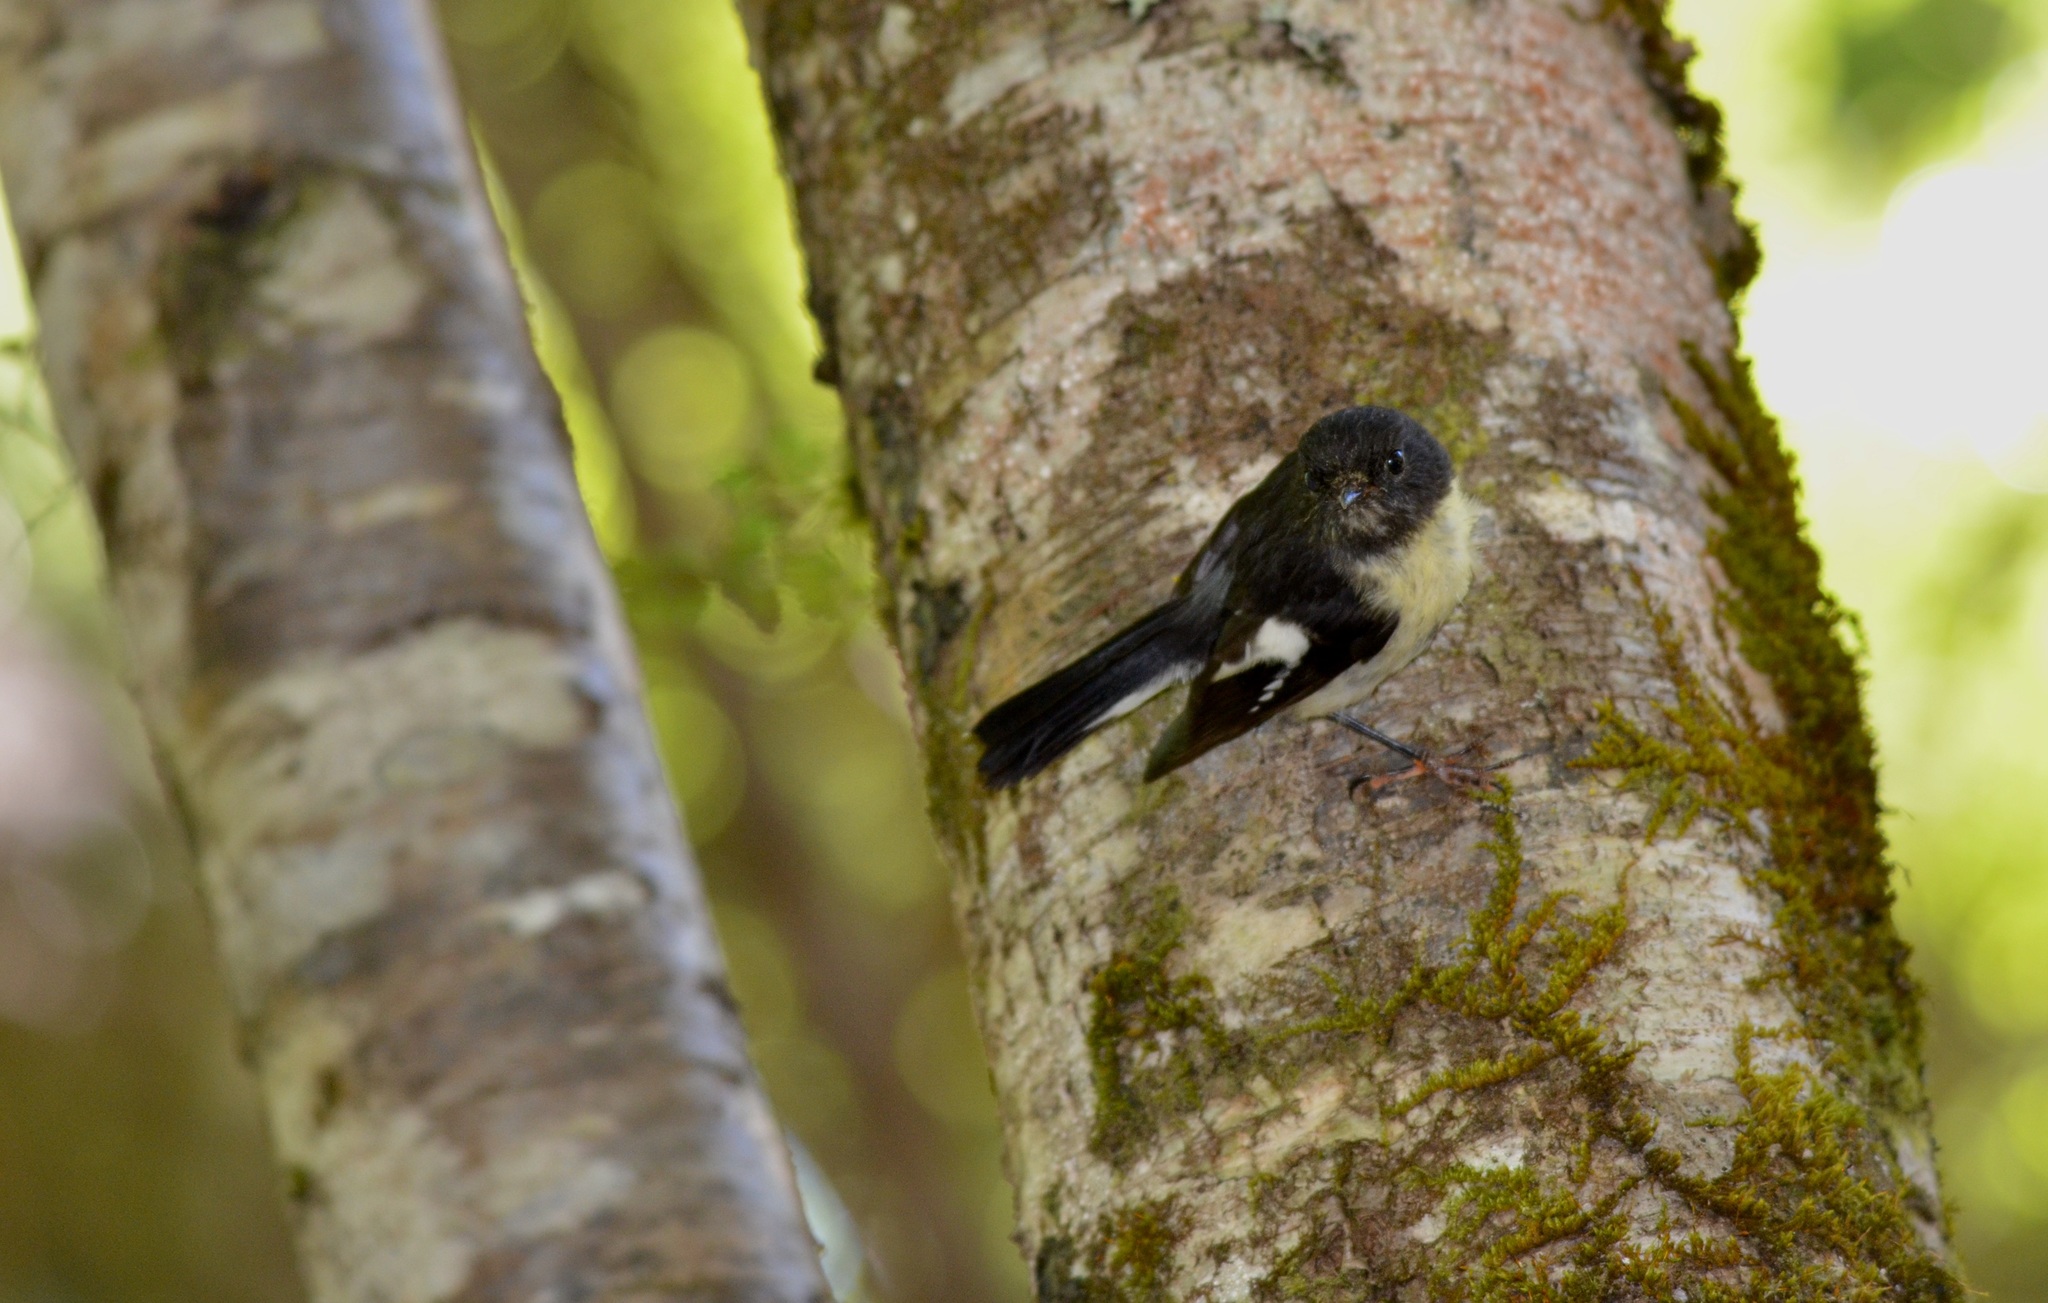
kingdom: Animalia
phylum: Chordata
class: Aves
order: Passeriformes
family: Petroicidae
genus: Petroica
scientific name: Petroica macrocephala
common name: Tomtit
